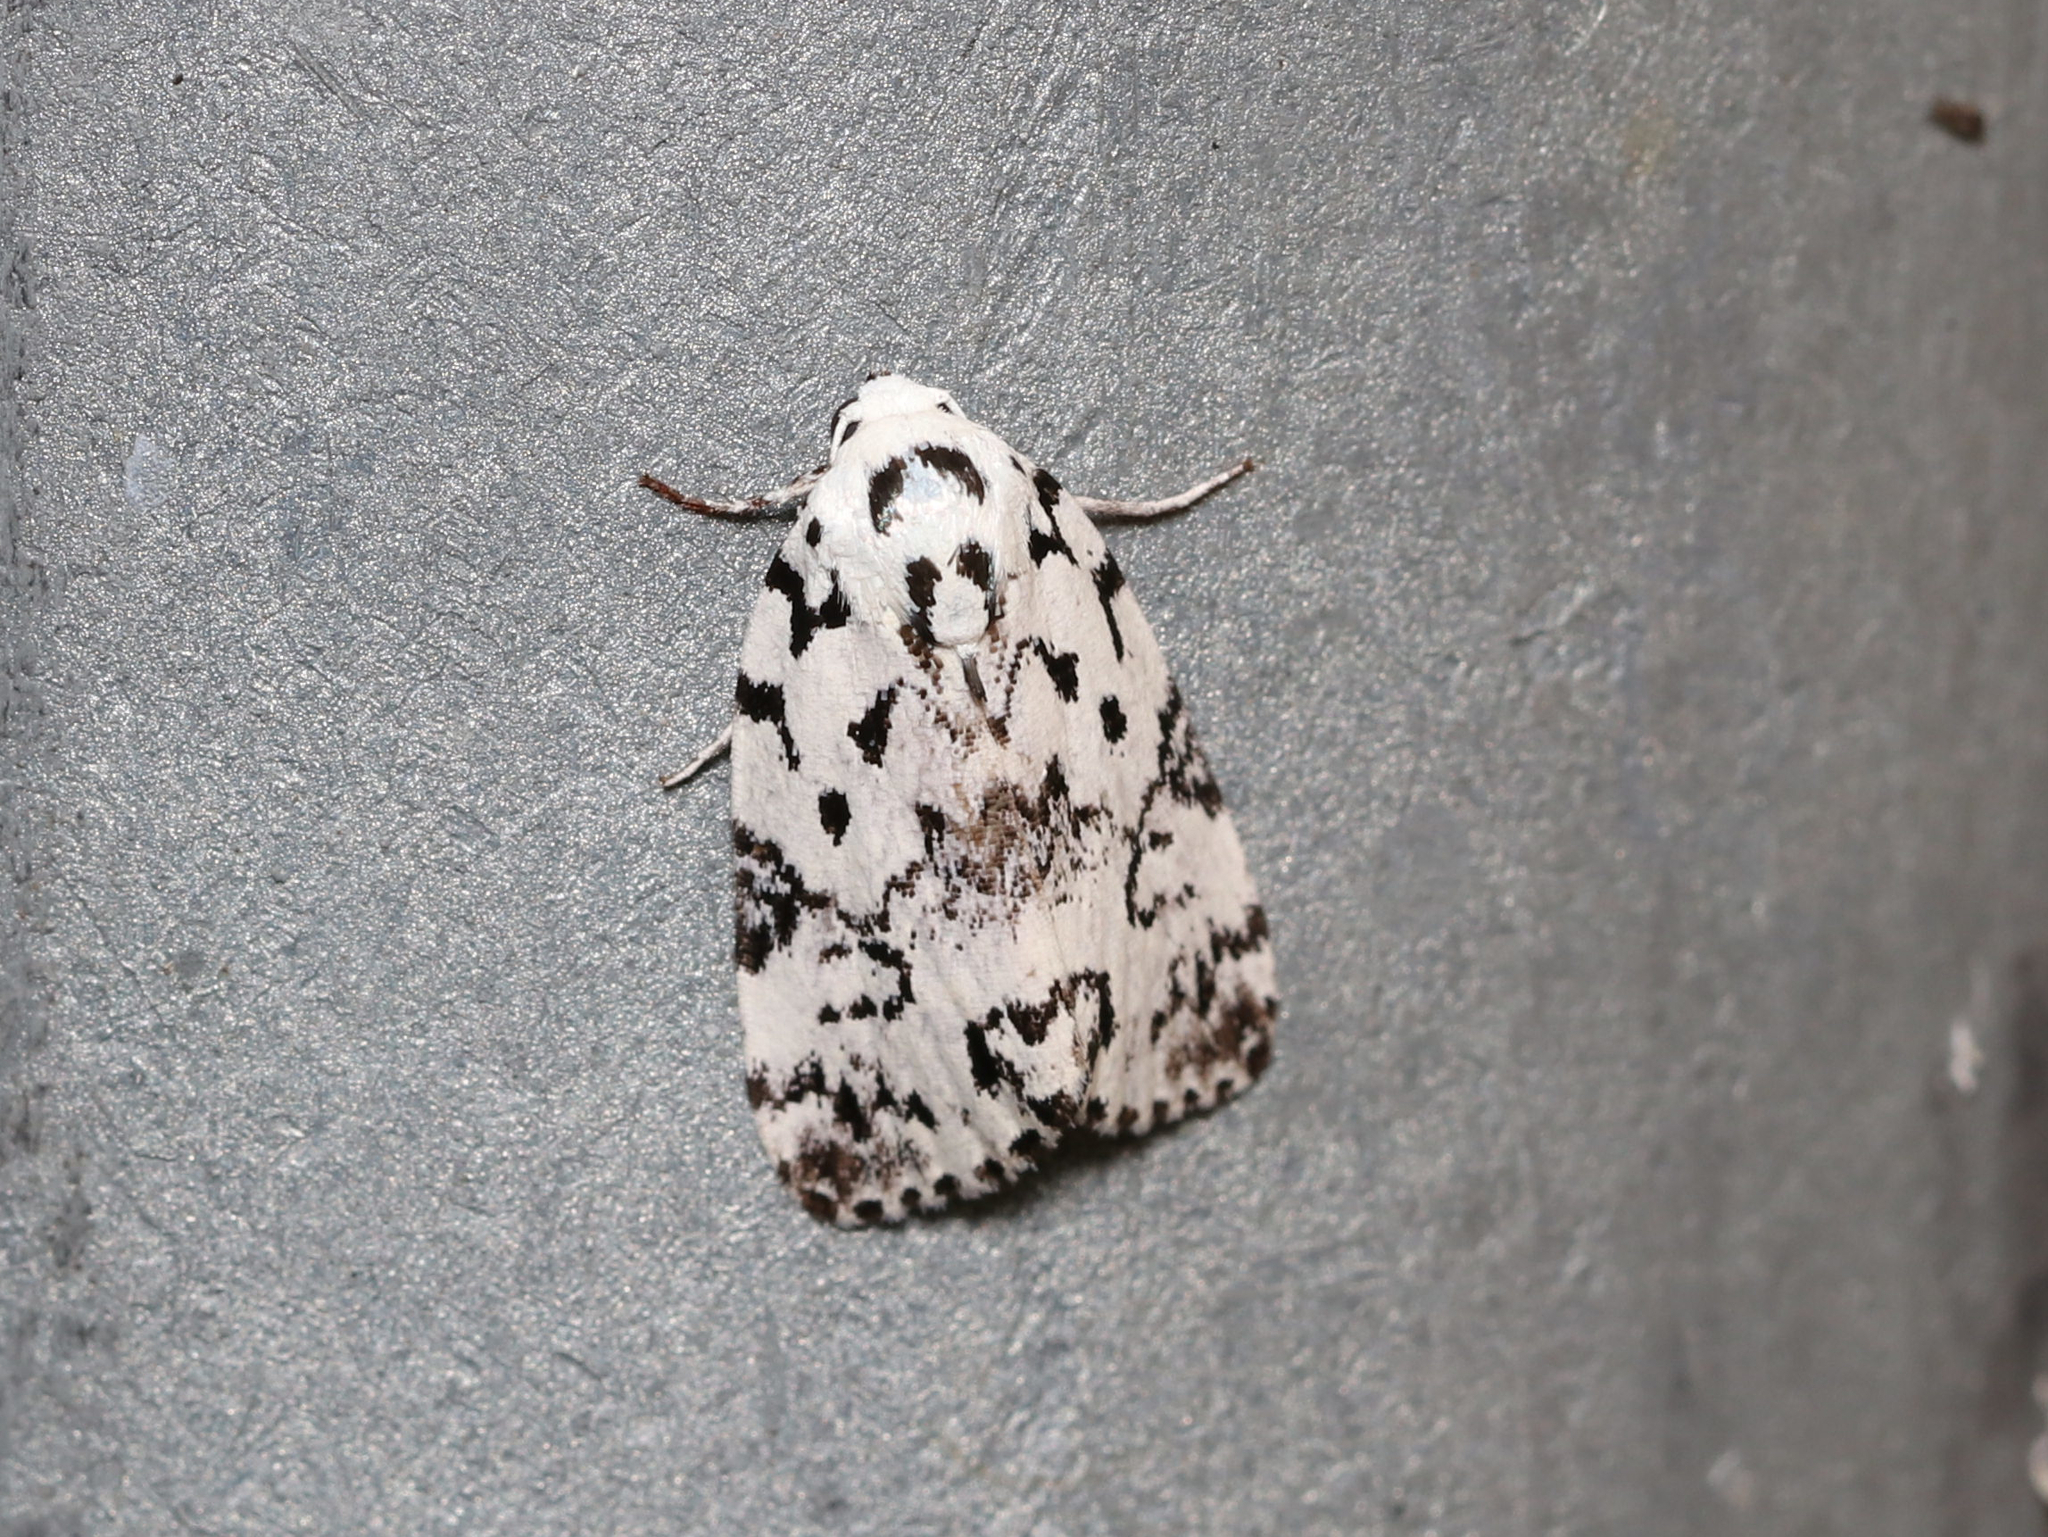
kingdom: Animalia
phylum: Arthropoda
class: Insecta
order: Lepidoptera
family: Noctuidae
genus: Polygrammate
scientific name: Polygrammate hebraeicum
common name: Hebrew moth
